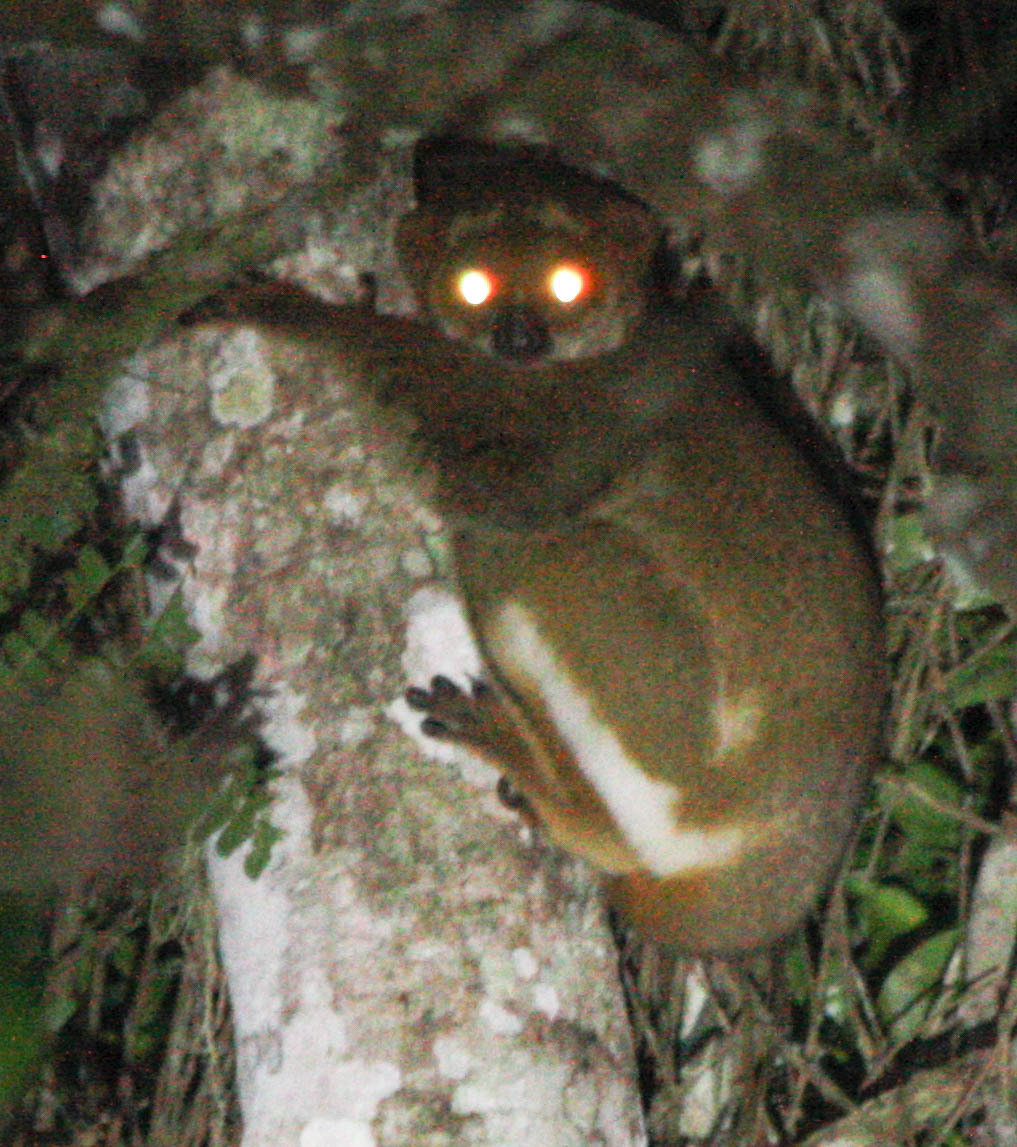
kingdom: Animalia
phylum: Chordata
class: Mammalia
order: Primates
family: Indriidae
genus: Avahi
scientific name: Avahi laniger
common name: Eastern woolly lemur
